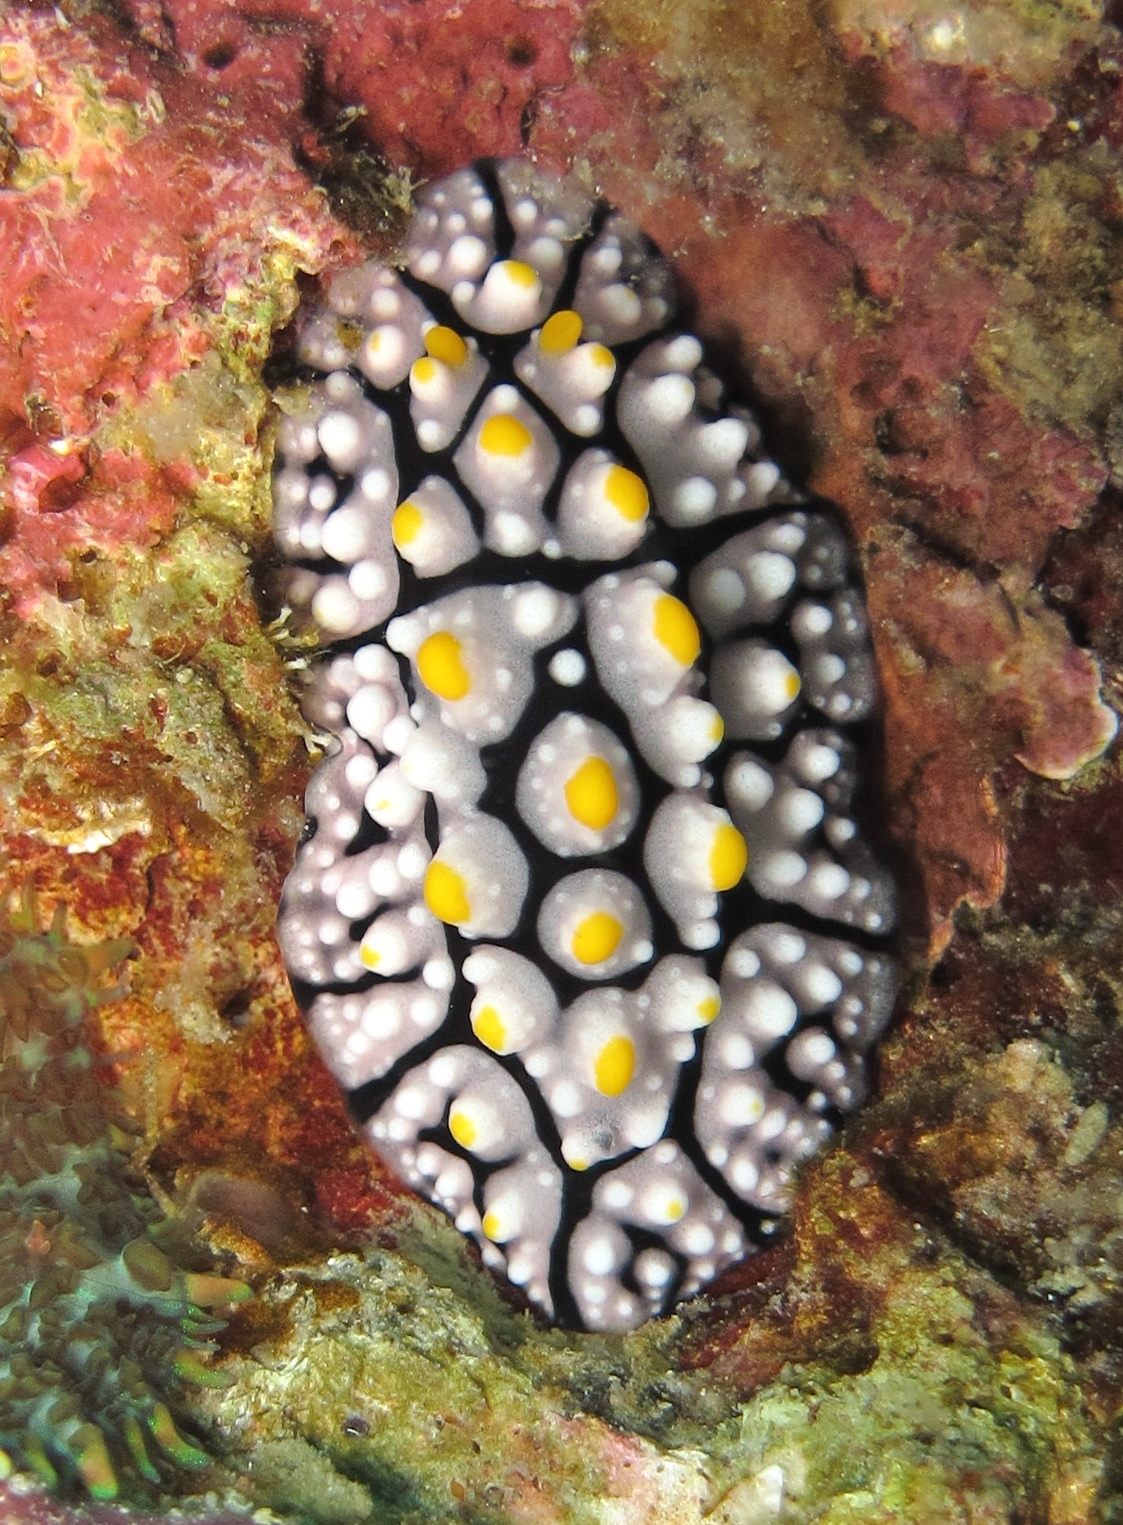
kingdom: Animalia
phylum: Mollusca
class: Gastropoda
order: Nudibranchia
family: Phyllidiidae
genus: Phyllidia
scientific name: Phyllidia elegans
